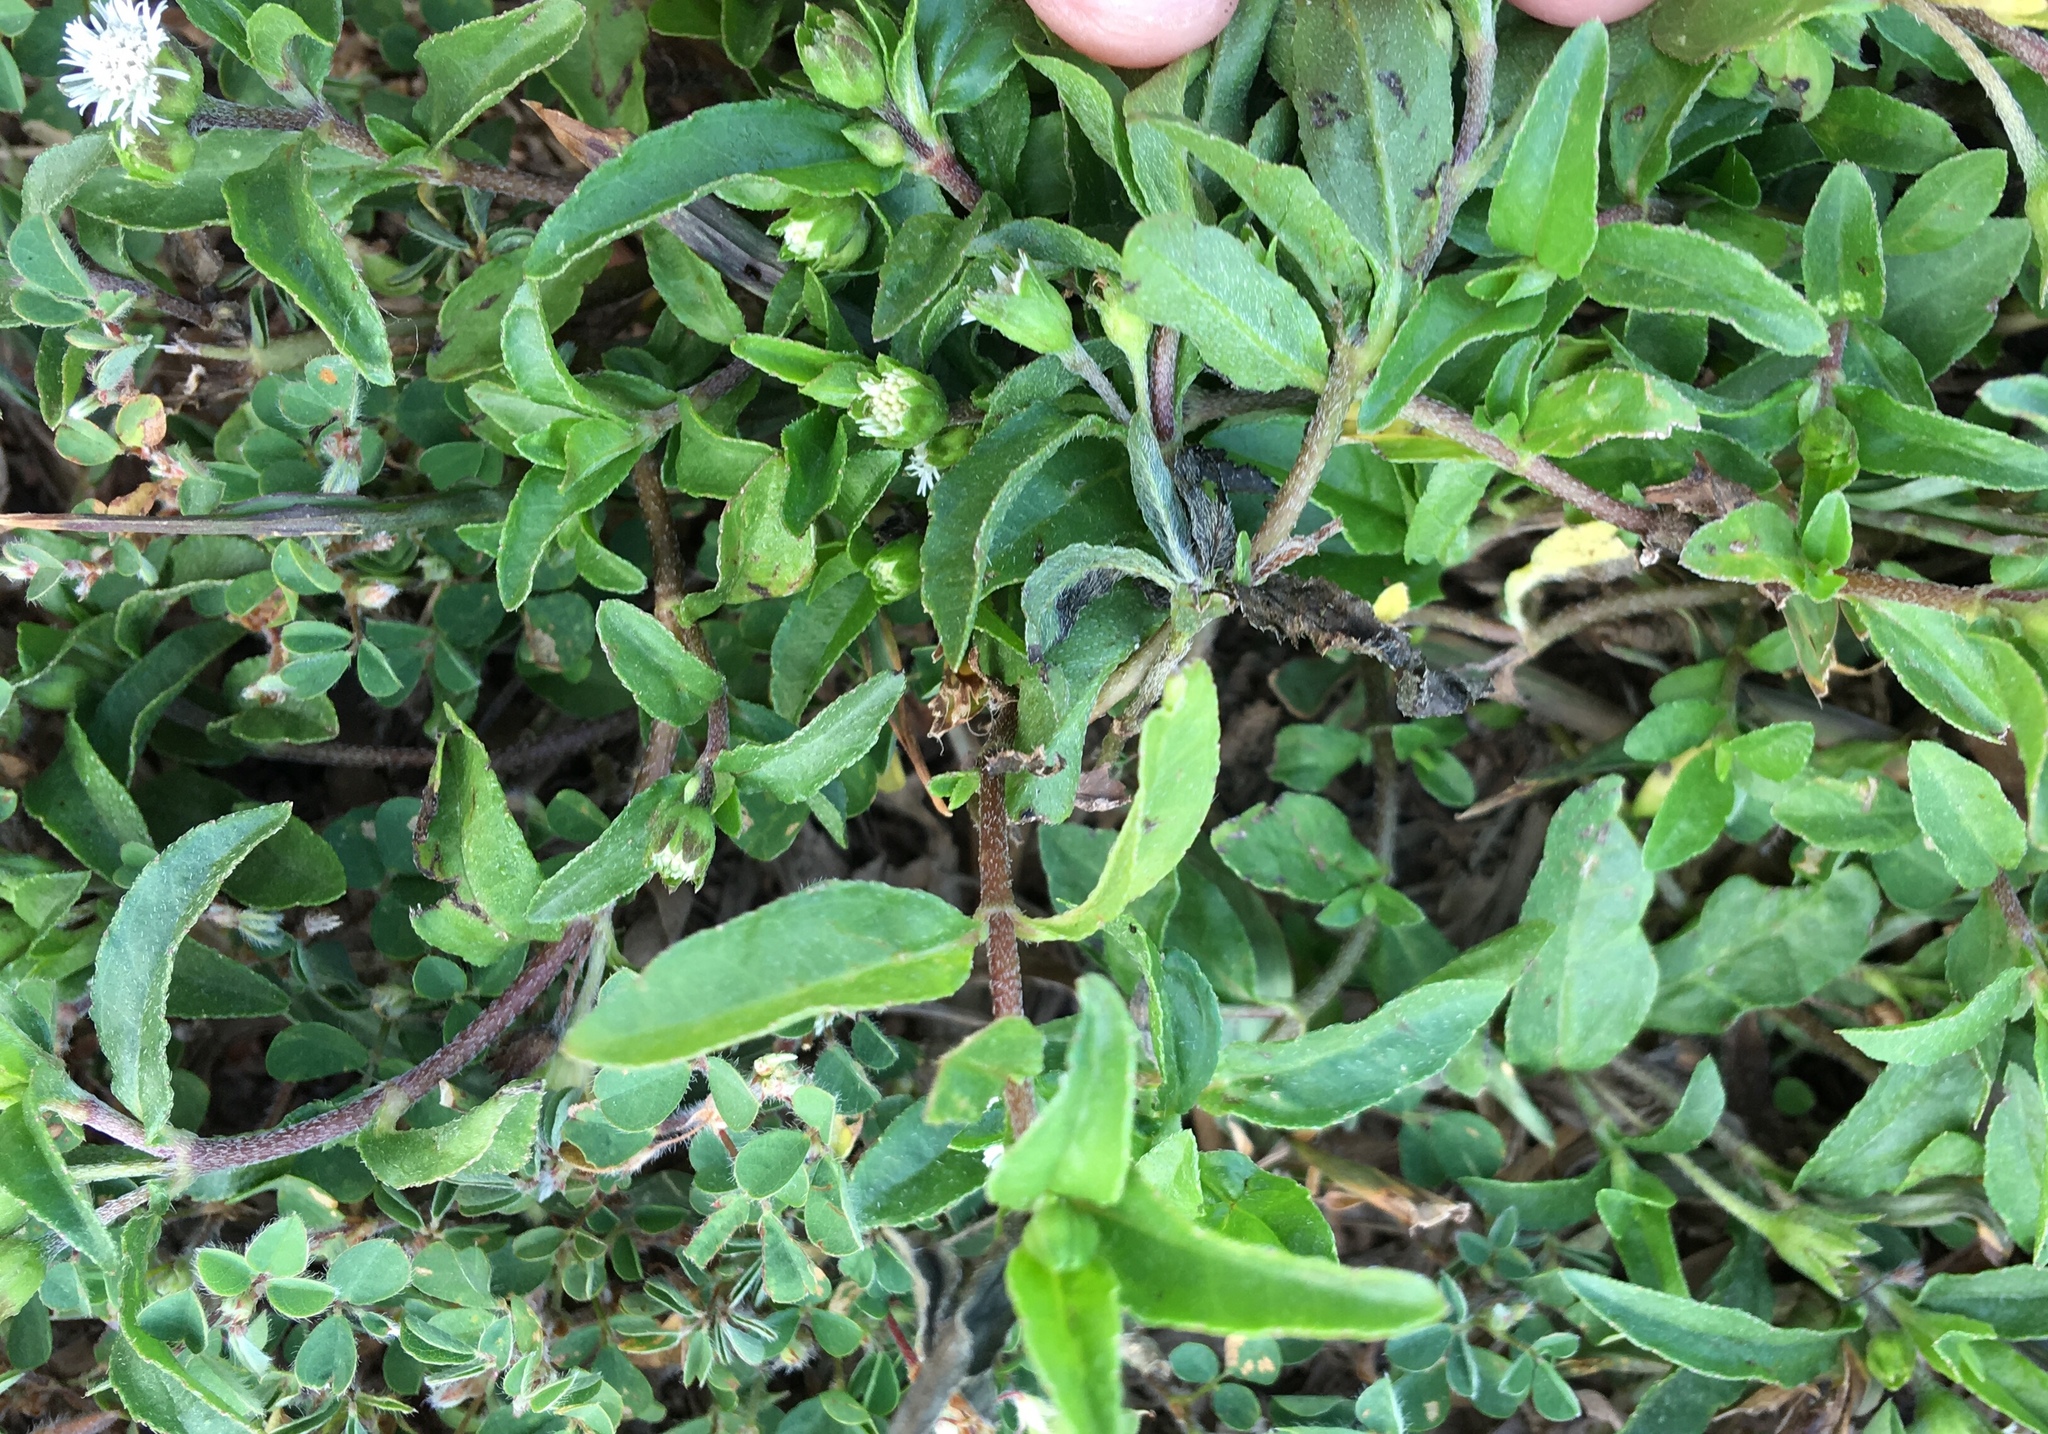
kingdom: Plantae
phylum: Tracheophyta
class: Magnoliopsida
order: Asterales
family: Asteraceae
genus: Eclipta
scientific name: Eclipta prostrata
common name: False daisy
